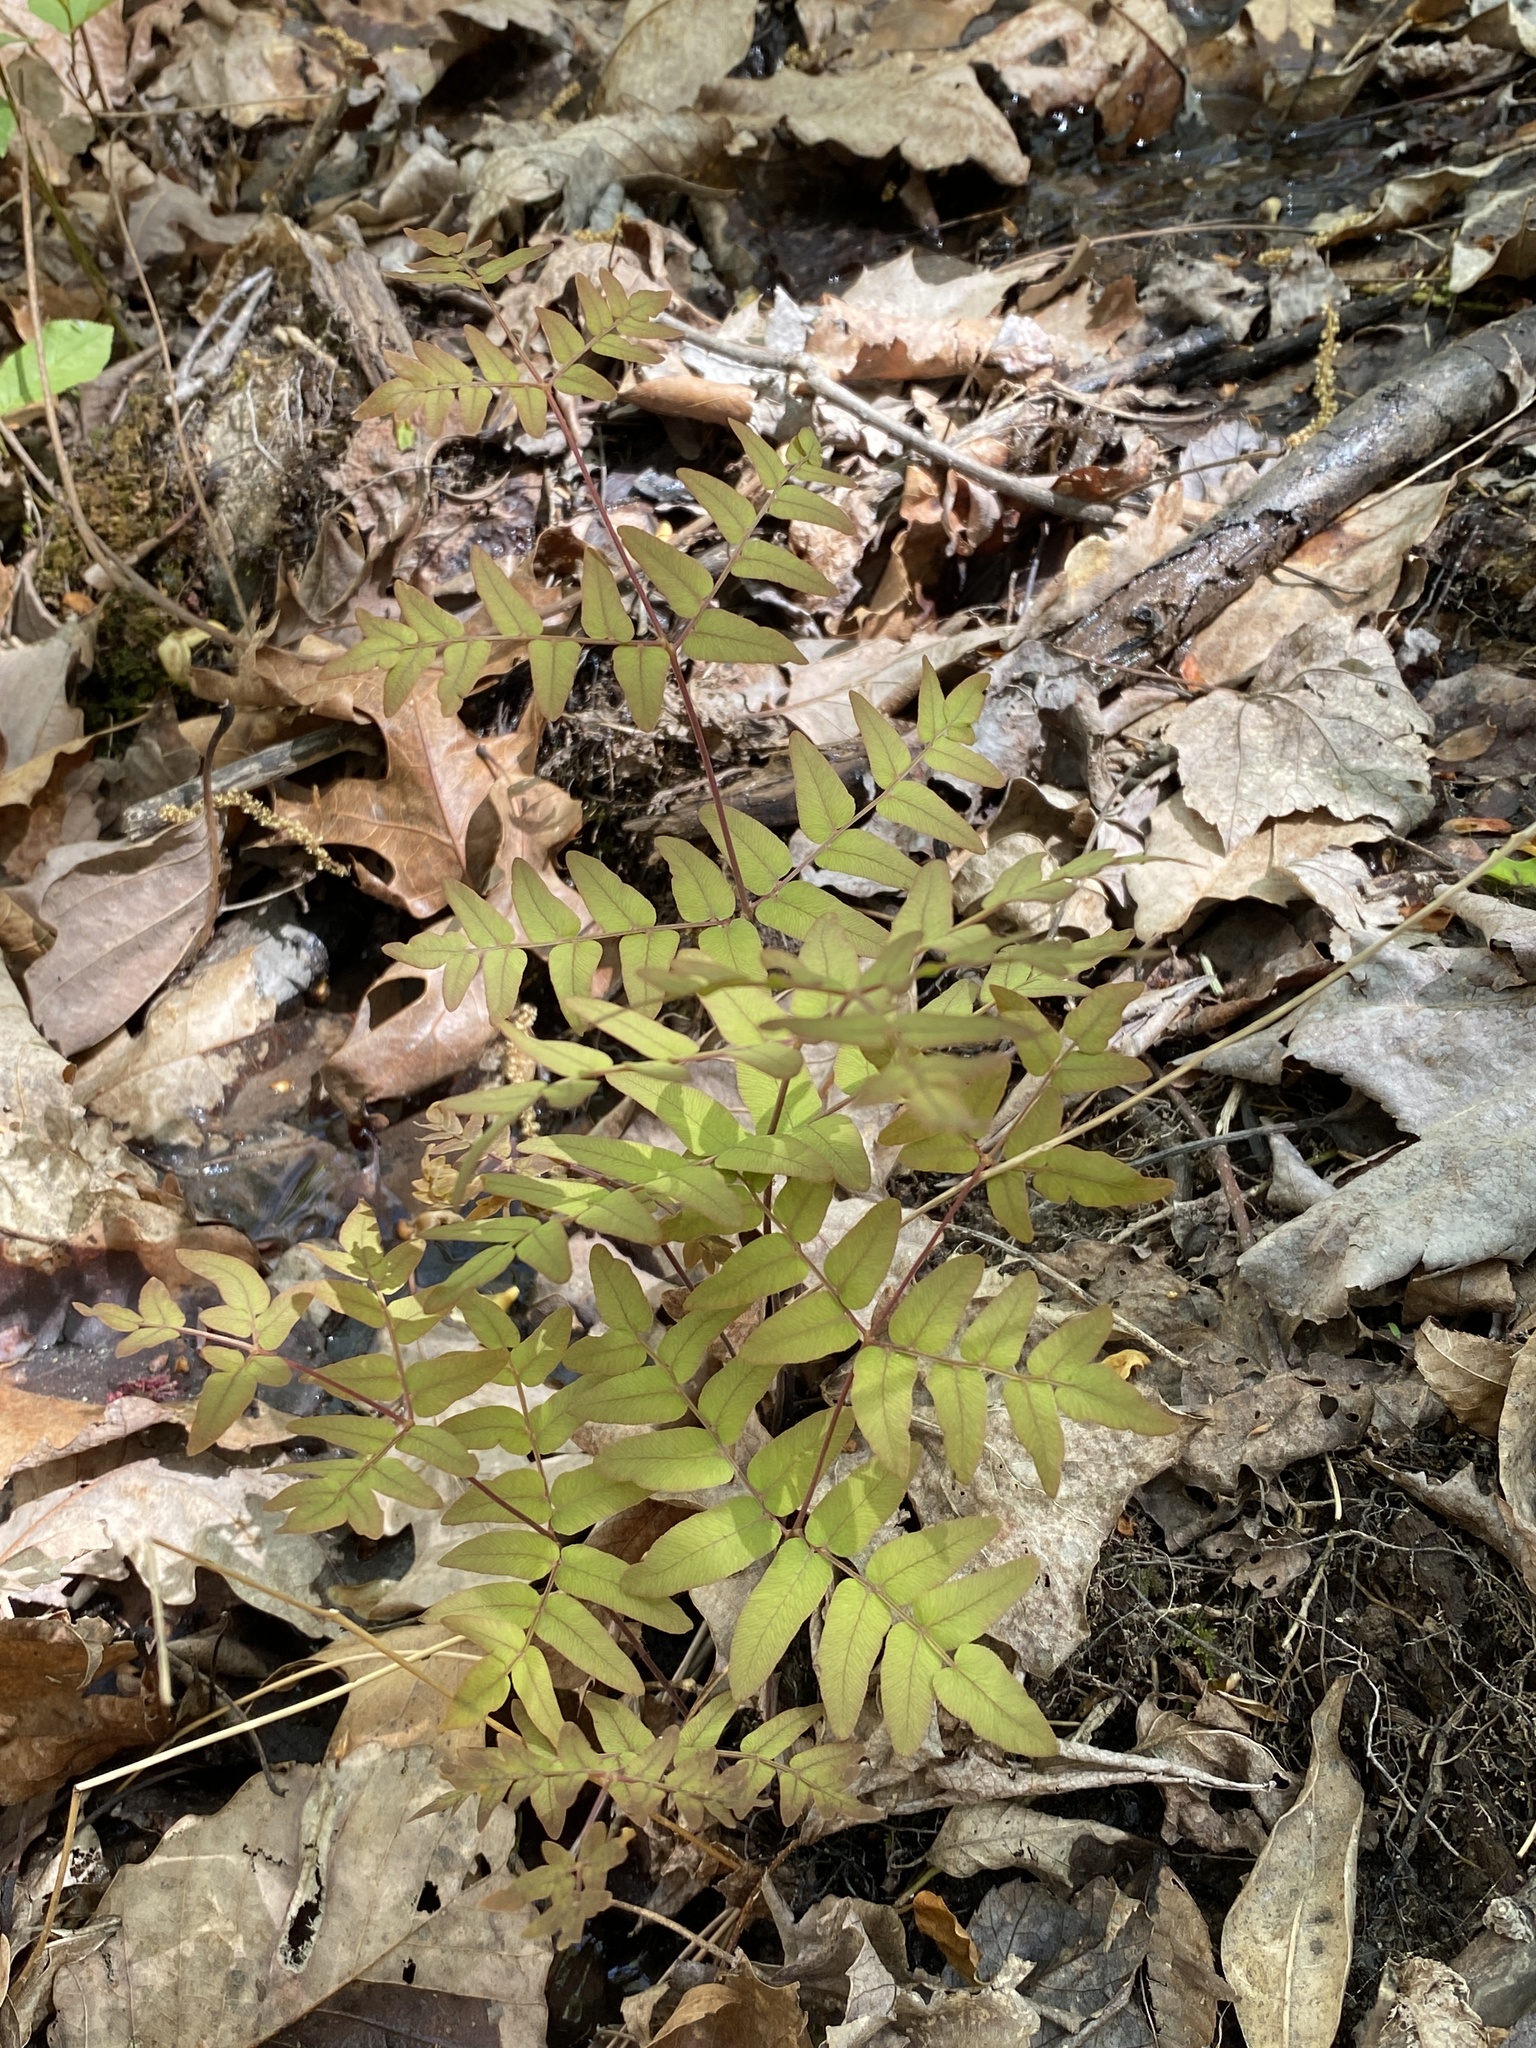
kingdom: Plantae
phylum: Tracheophyta
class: Polypodiopsida
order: Osmundales
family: Osmundaceae
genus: Osmunda
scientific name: Osmunda spectabilis
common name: American royal fern
